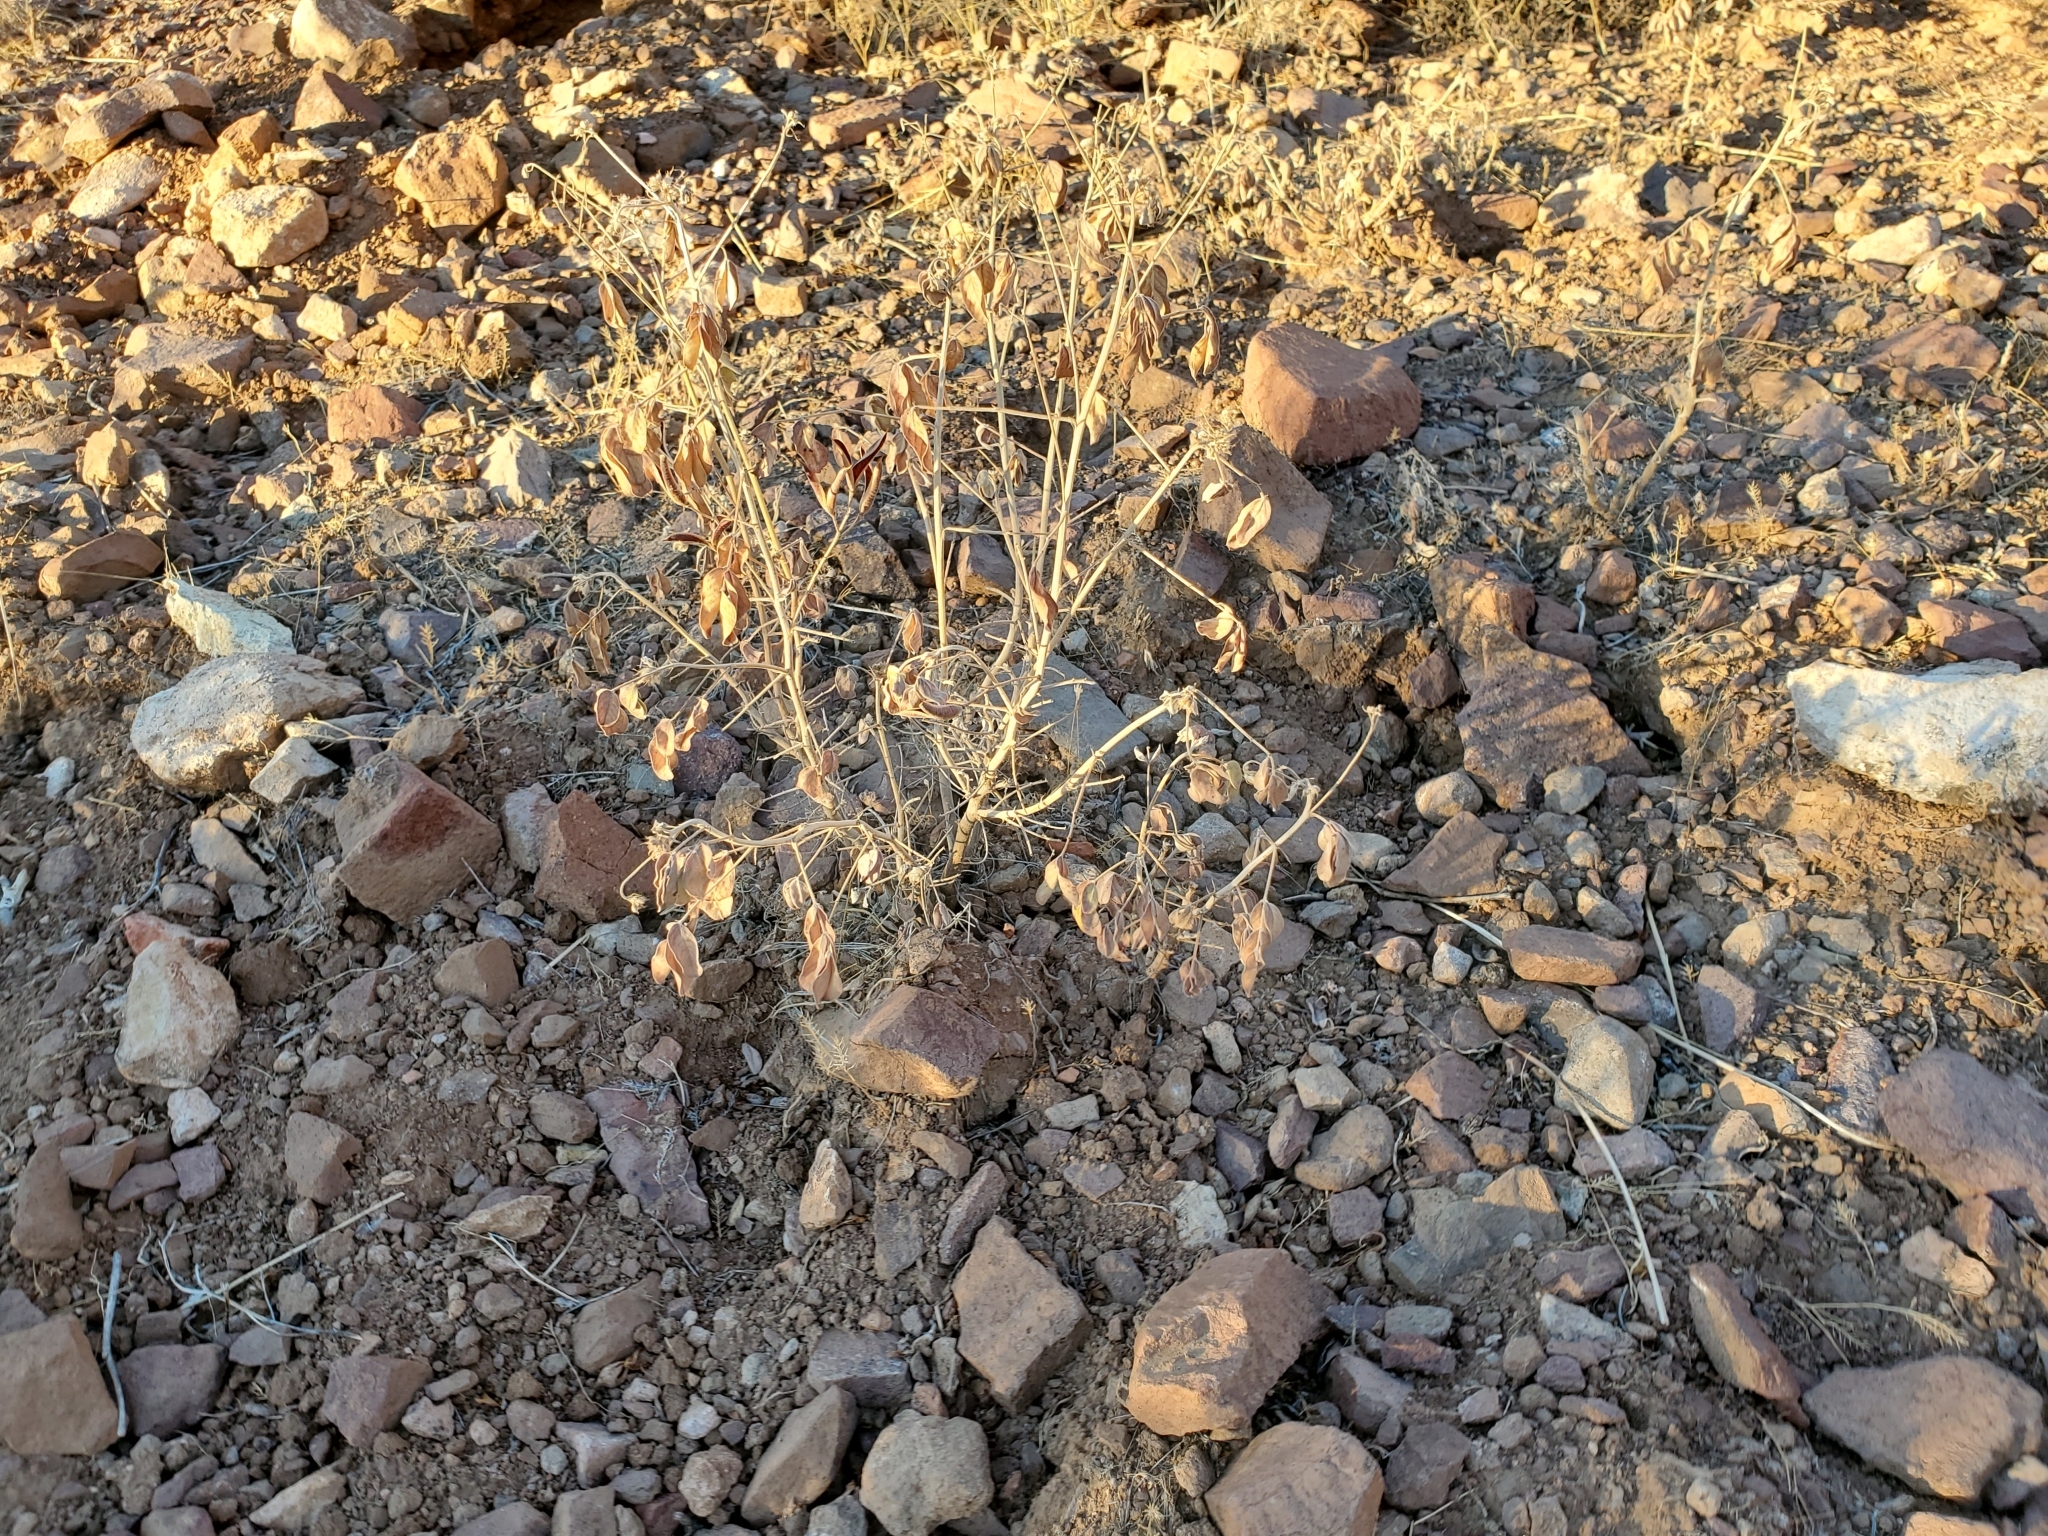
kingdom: Plantae
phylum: Tracheophyta
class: Magnoliopsida
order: Fabales
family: Fabaceae
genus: Senna
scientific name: Senna covesii
